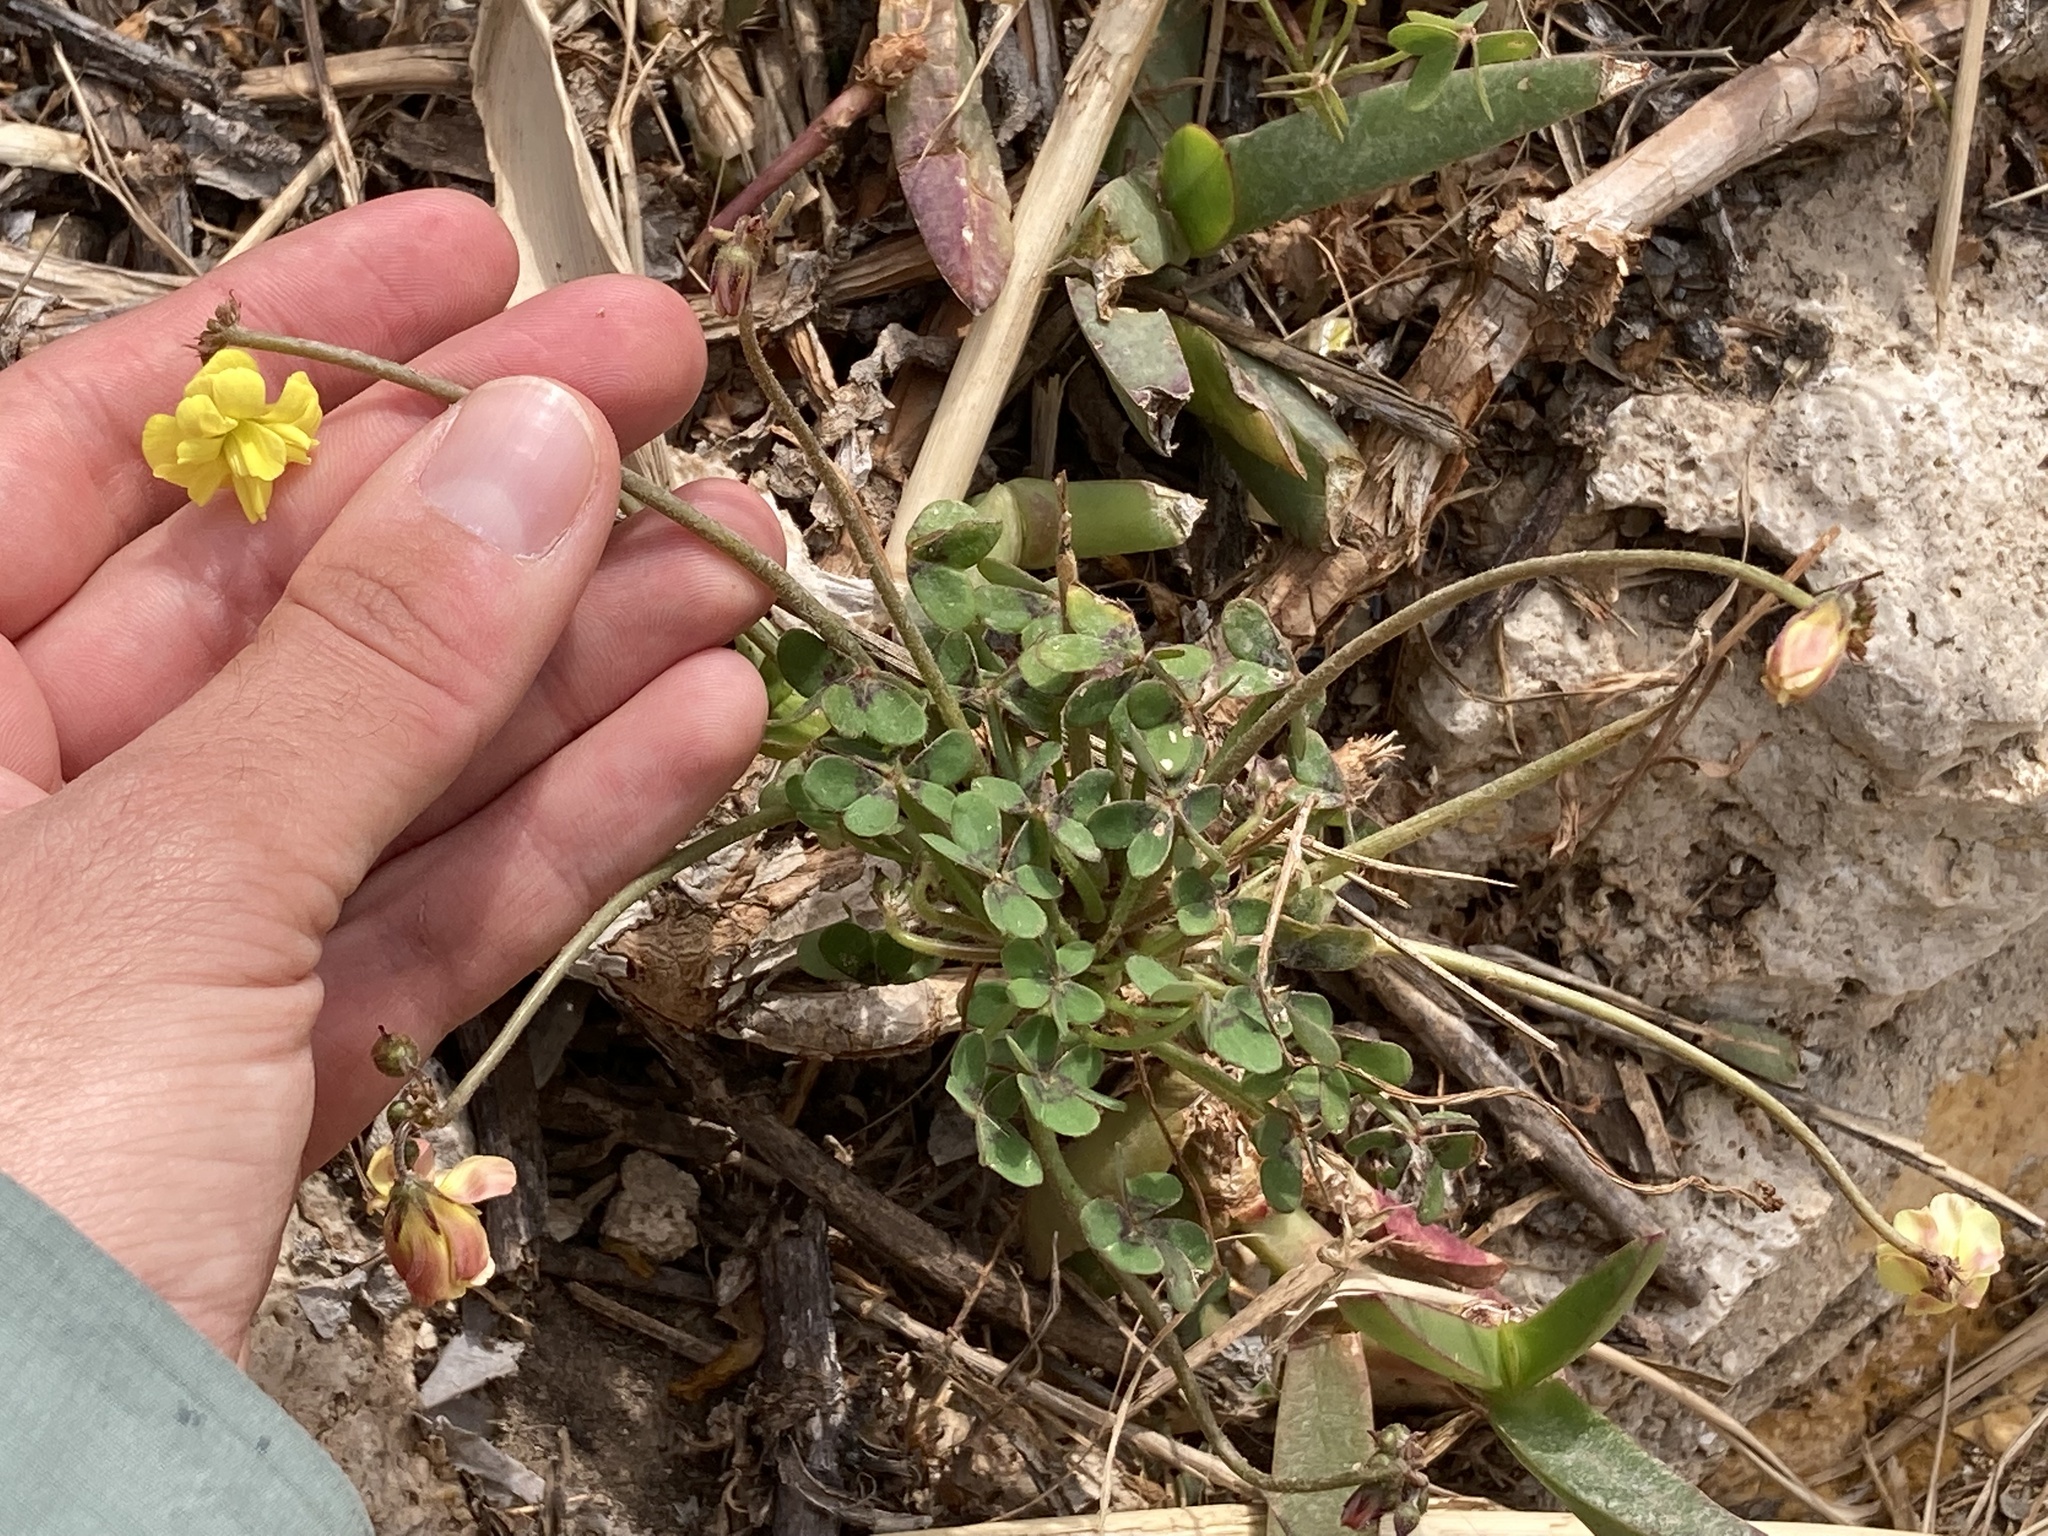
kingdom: Plantae
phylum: Tracheophyta
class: Magnoliopsida
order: Oxalidales
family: Oxalidaceae
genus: Oxalis
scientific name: Oxalis pes-caprae
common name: Bermuda-buttercup
